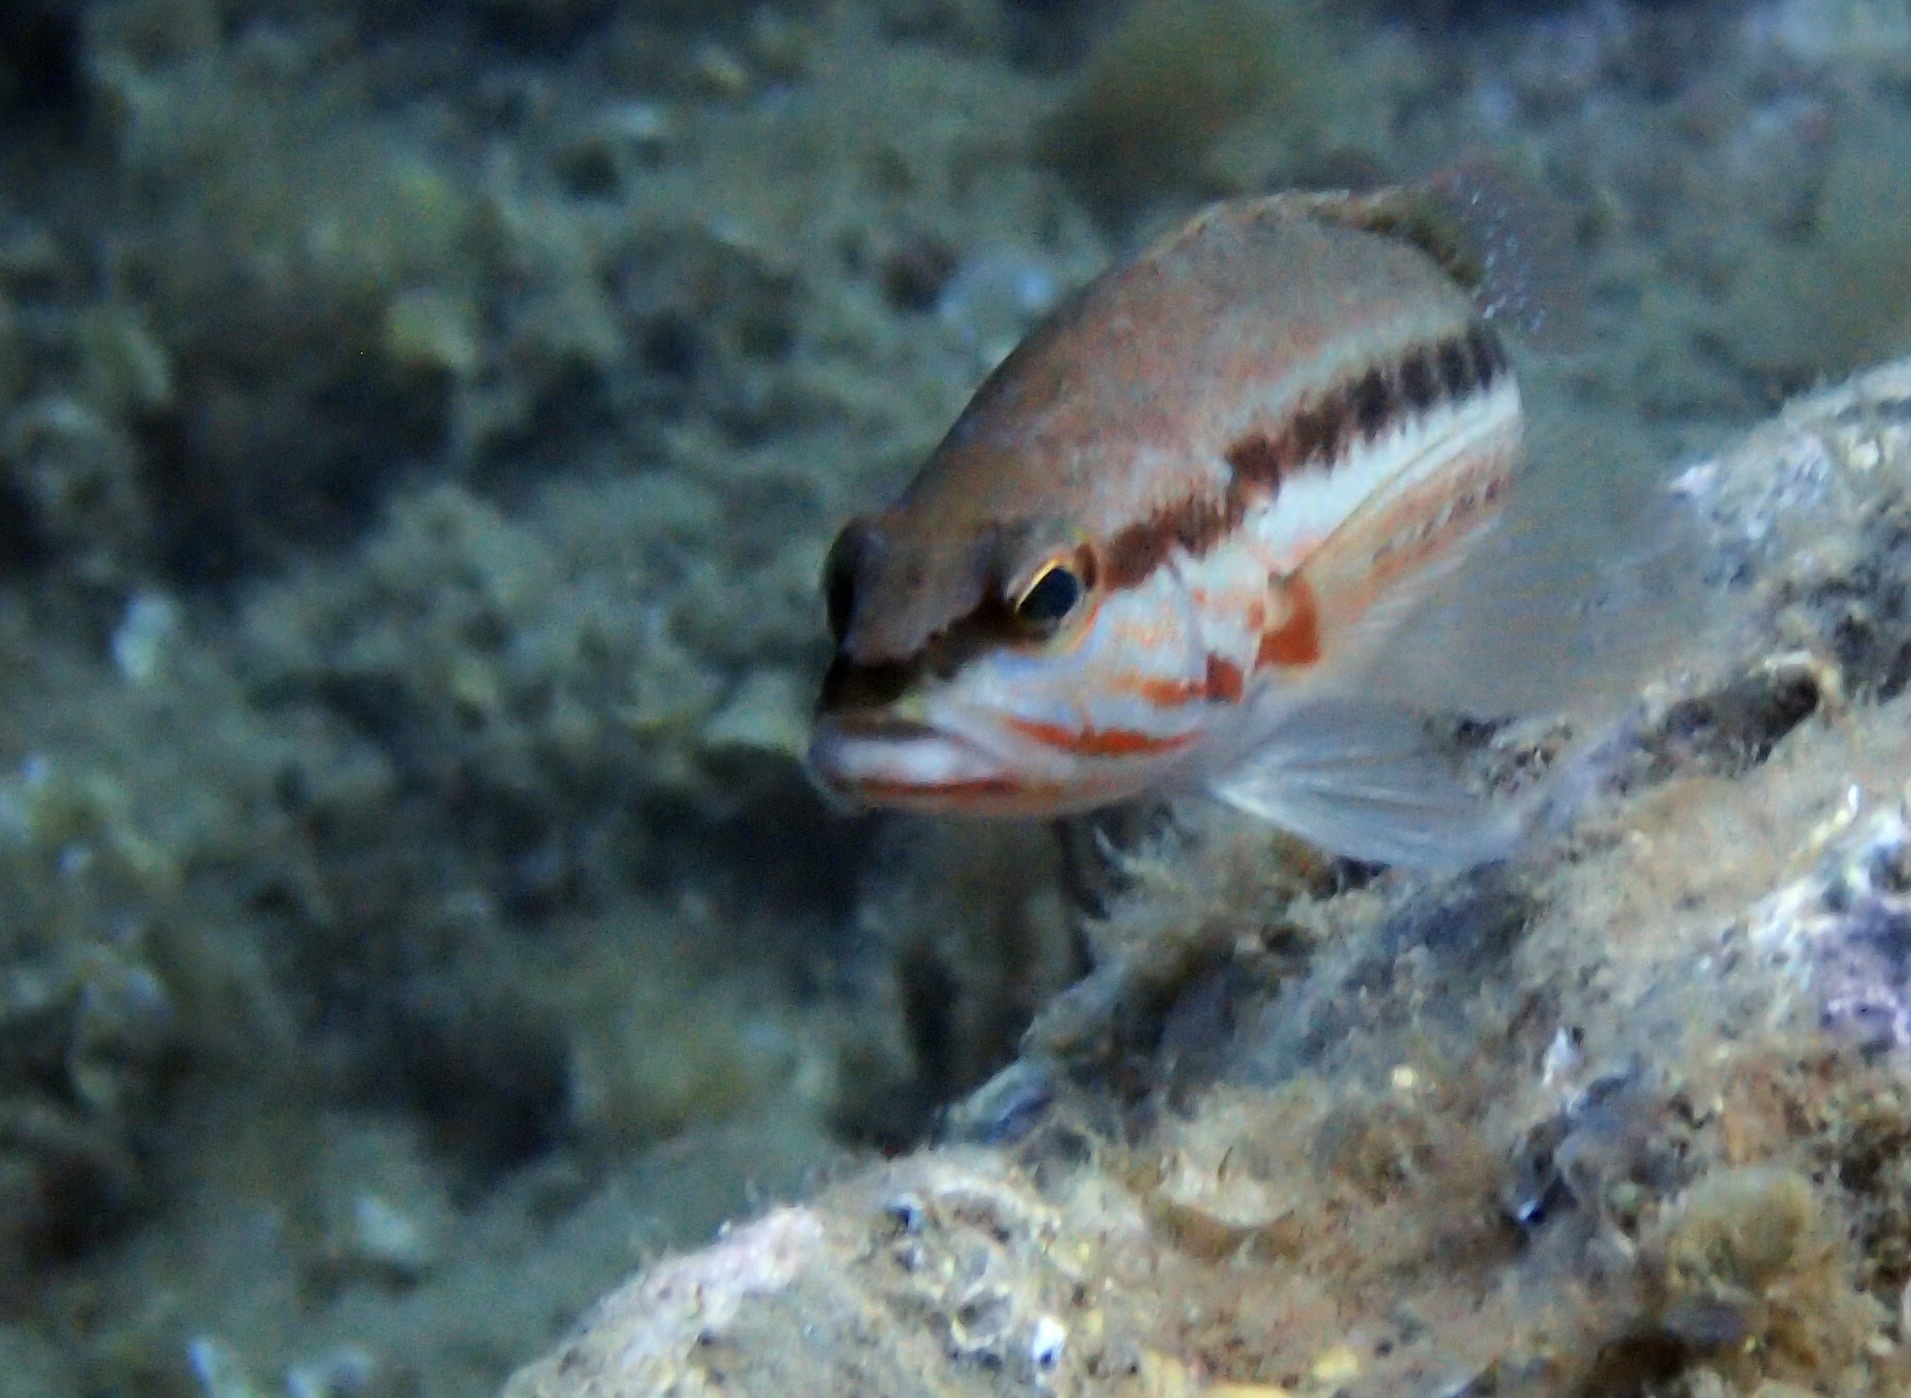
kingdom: Animalia
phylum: Chordata
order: Perciformes
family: Serranidae
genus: Serranus
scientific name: Serranus cabrilla
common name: Comber
